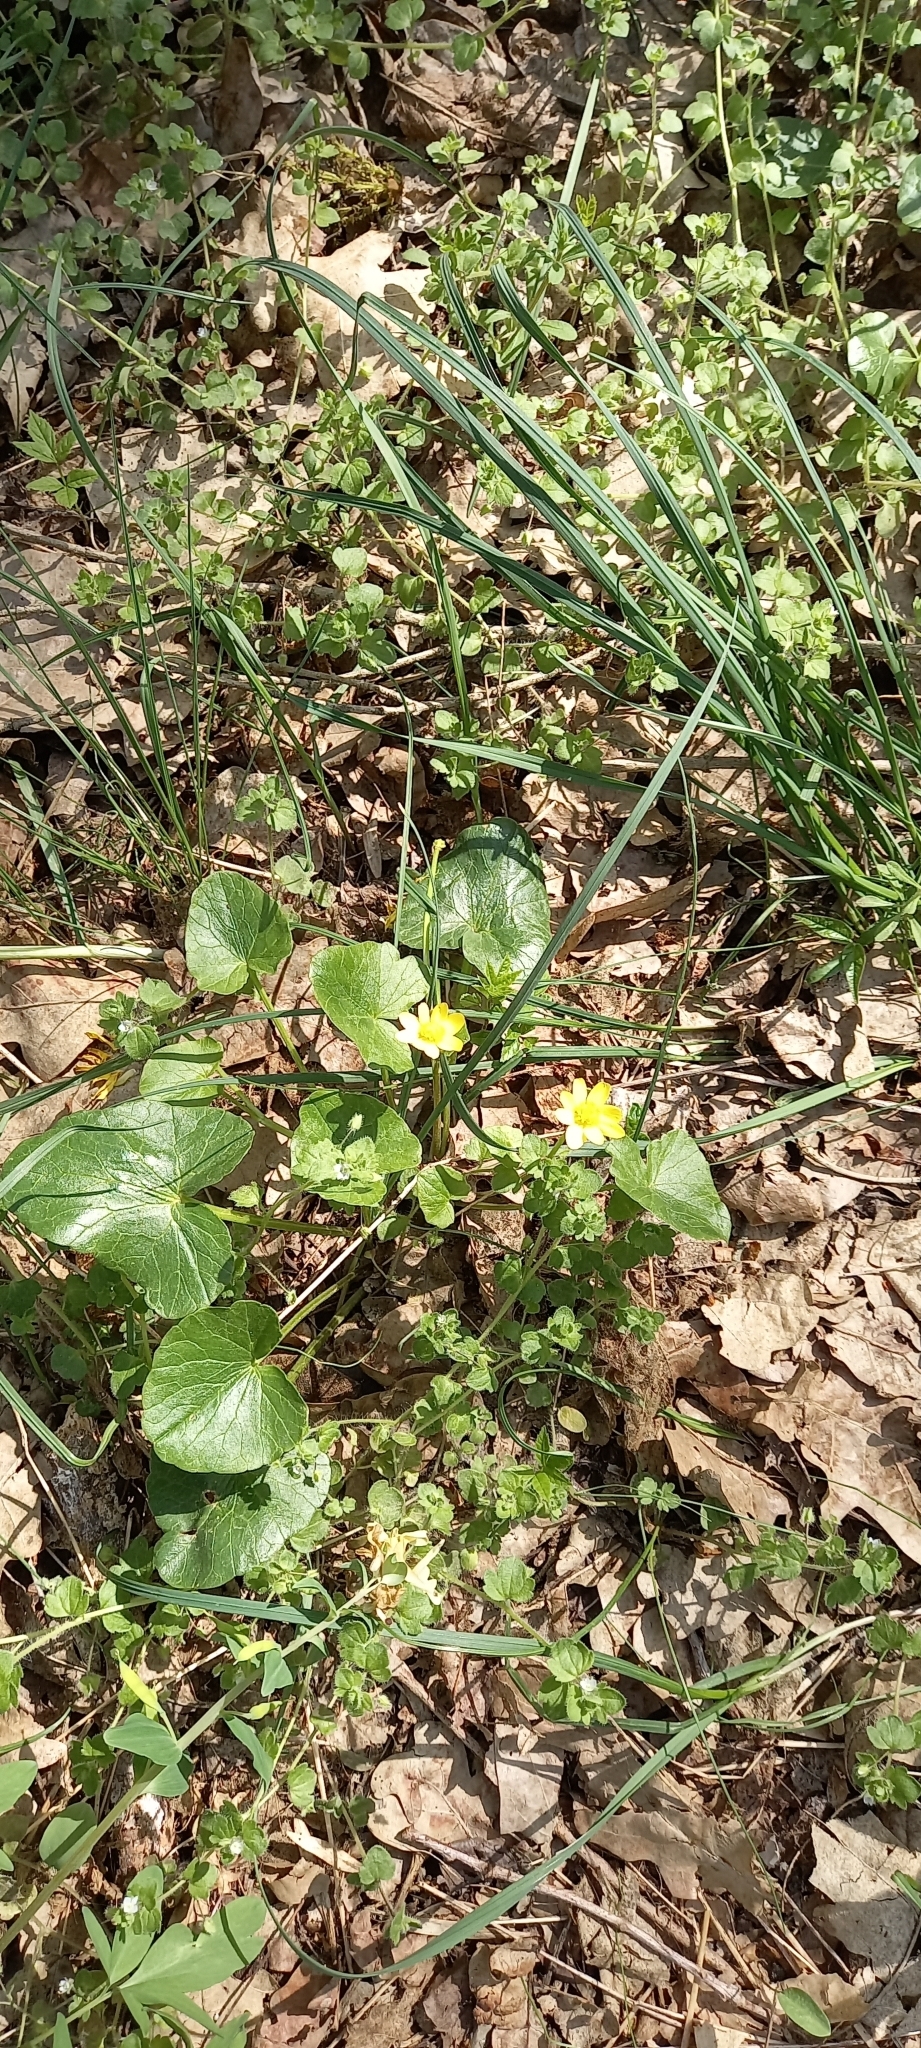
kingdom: Plantae
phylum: Tracheophyta
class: Magnoliopsida
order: Ranunculales
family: Ranunculaceae
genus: Ficaria
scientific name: Ficaria verna
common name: Lesser celandine
